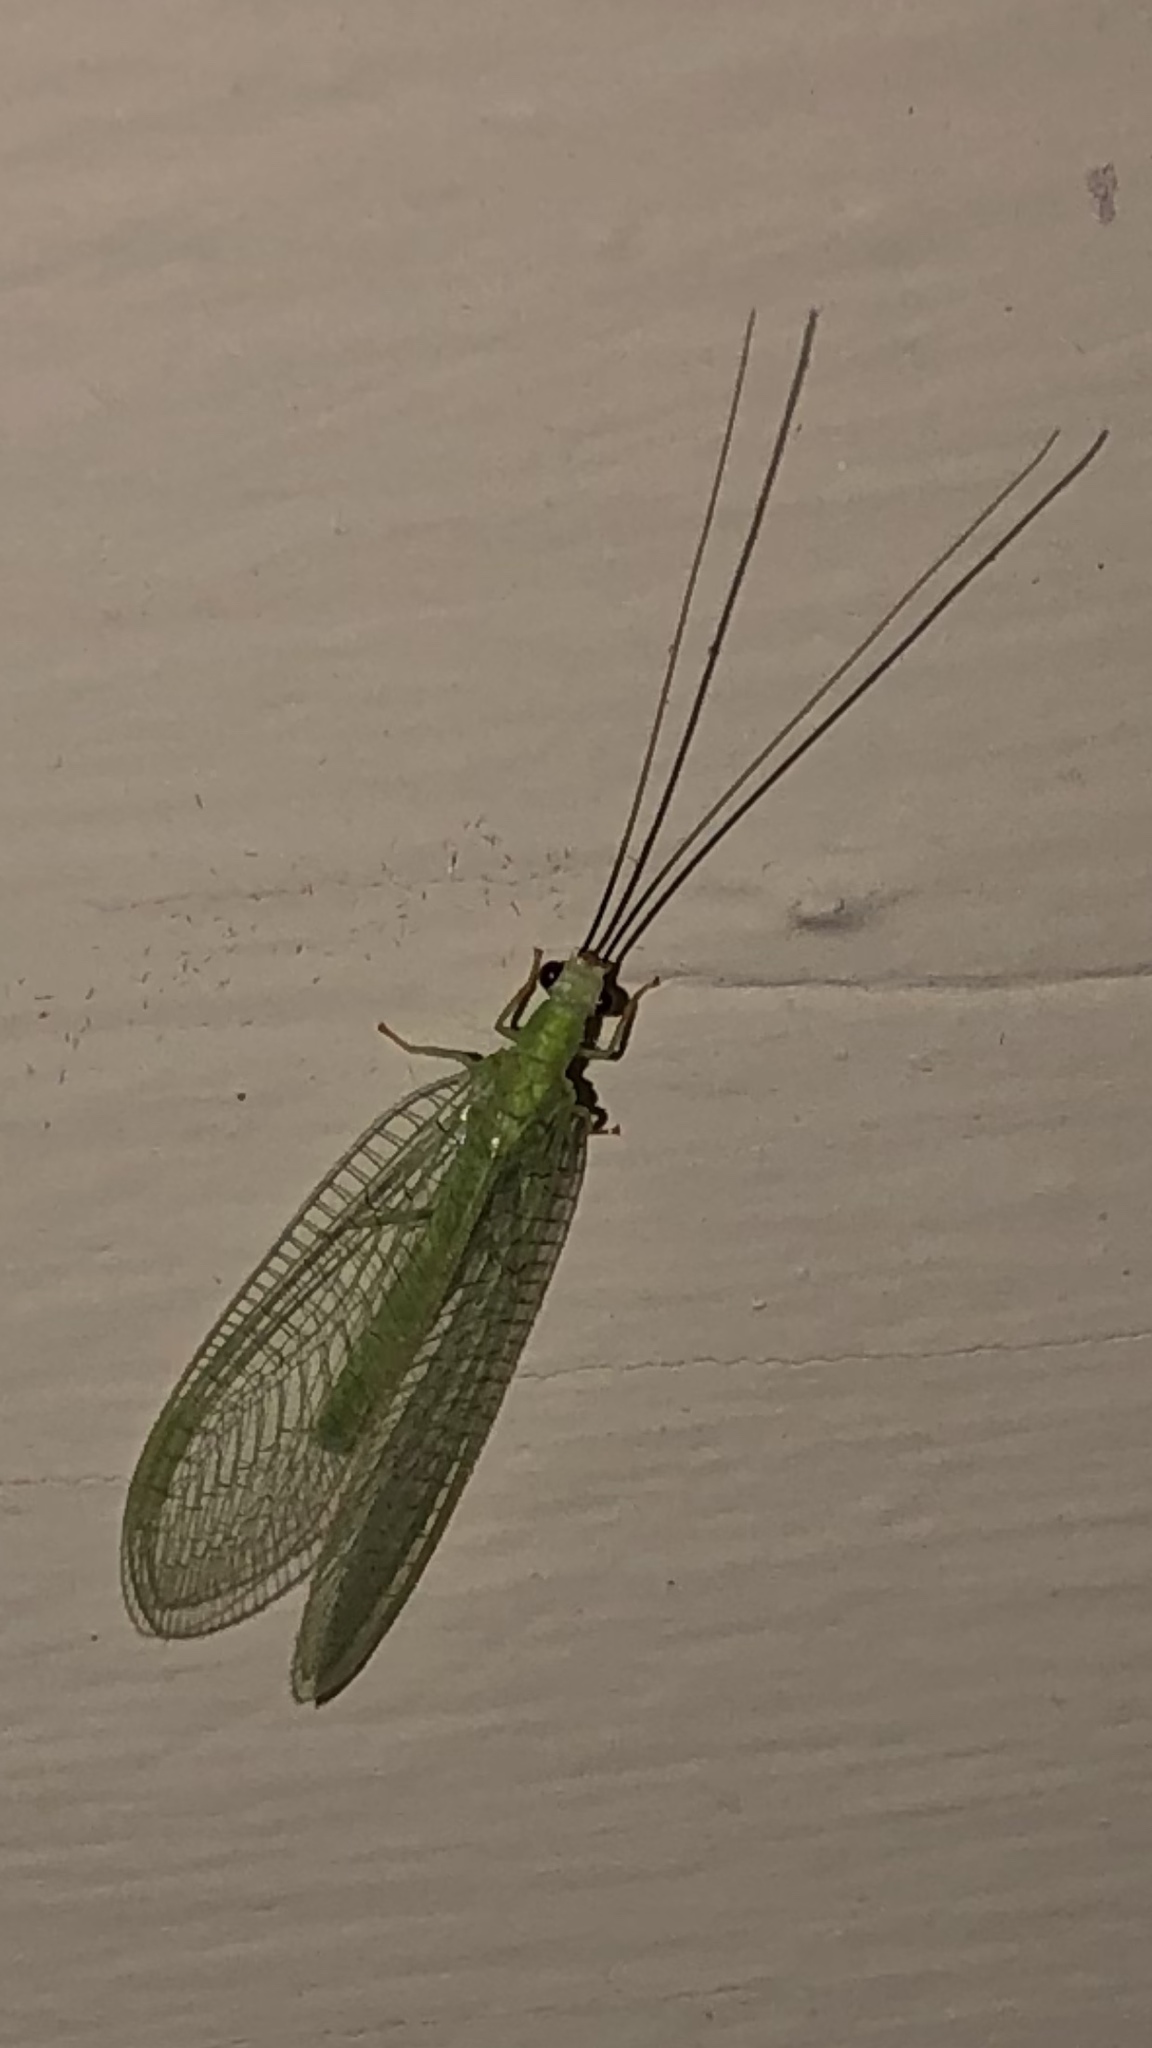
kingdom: Animalia
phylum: Arthropoda
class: Insecta
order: Neuroptera
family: Chrysopidae
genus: Chrysopa
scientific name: Chrysopa nigricornis
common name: Black-horned green lacewing
